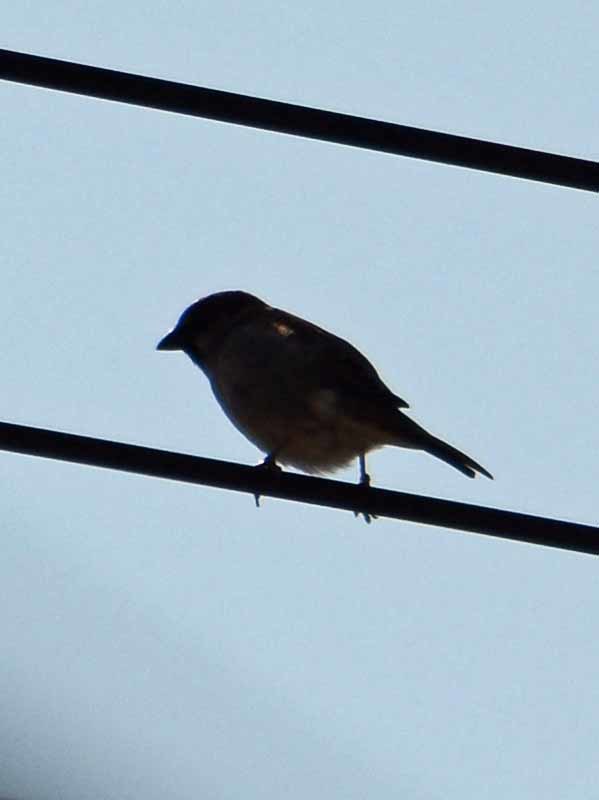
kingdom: Animalia
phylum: Chordata
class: Aves
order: Passeriformes
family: Passeridae
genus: Passer
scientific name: Passer domesticus
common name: House sparrow
